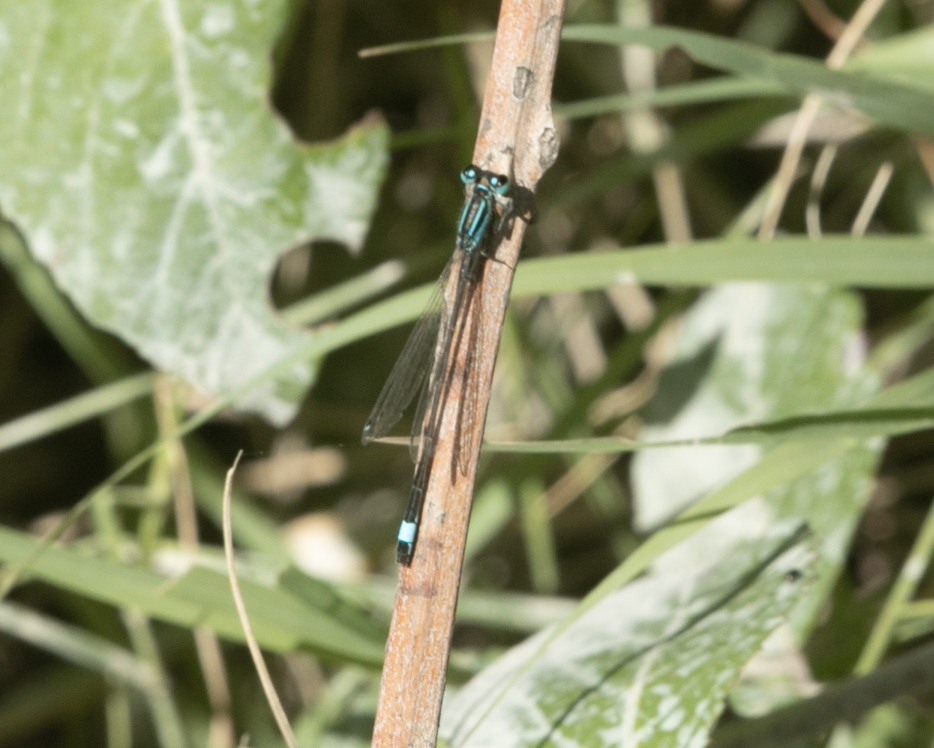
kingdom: Animalia
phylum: Arthropoda
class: Insecta
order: Odonata
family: Coenagrionidae
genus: Ischnura
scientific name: Ischnura elegans
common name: Blue-tailed damselfly
